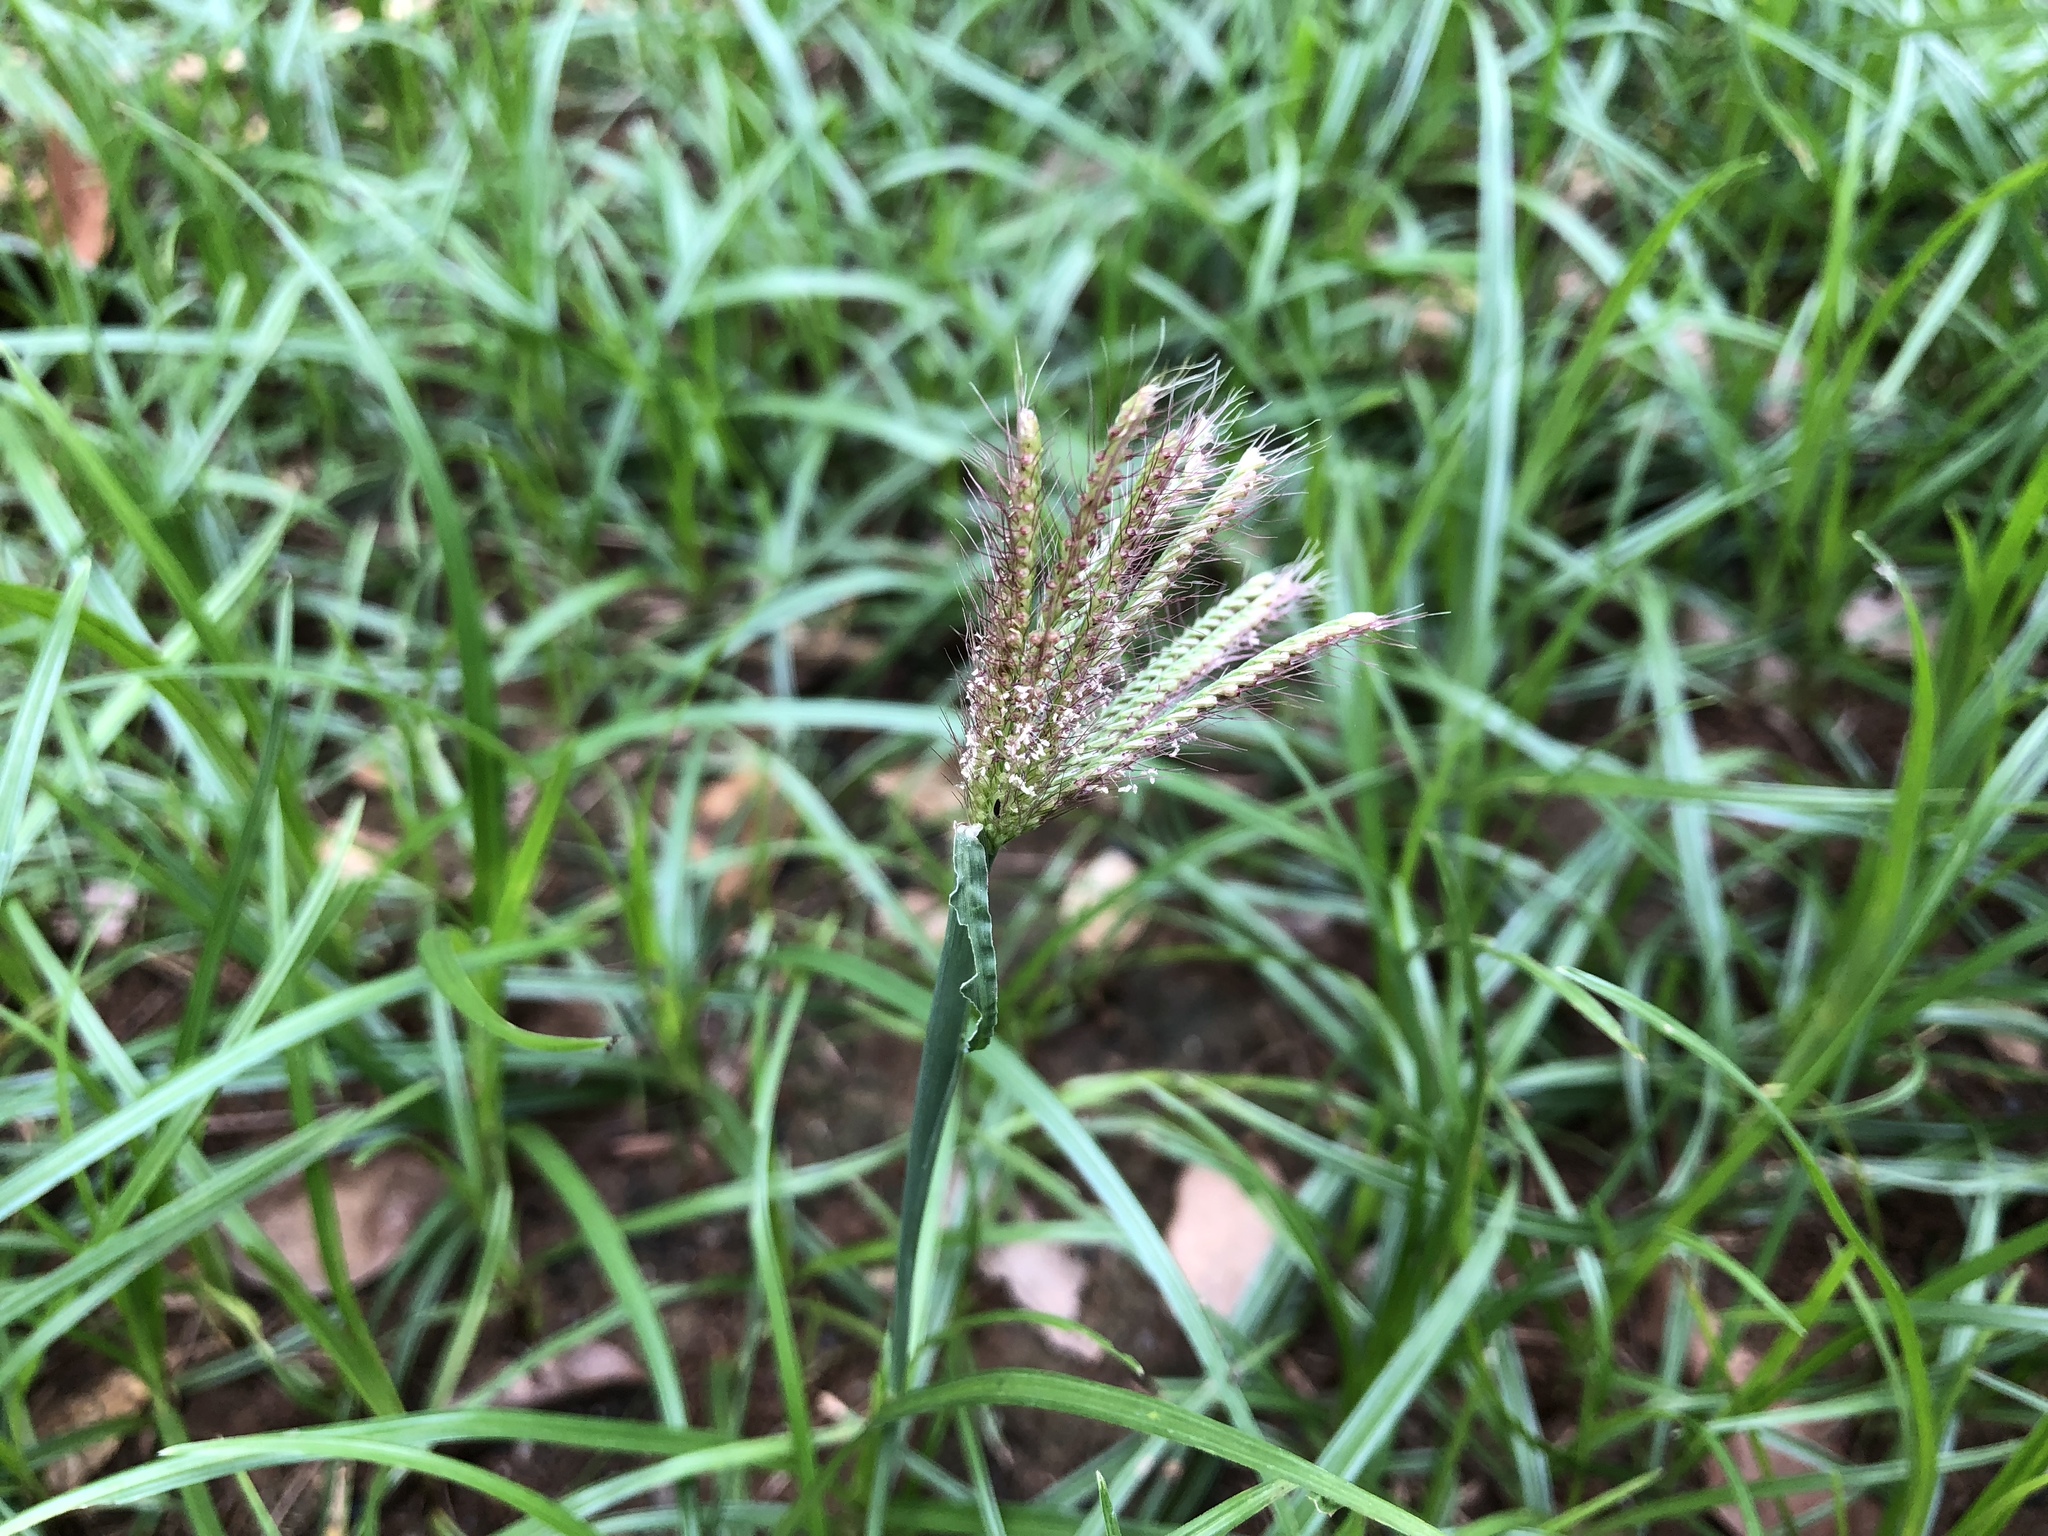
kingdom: Plantae
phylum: Tracheophyta
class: Liliopsida
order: Poales
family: Poaceae
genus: Chloris
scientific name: Chloris barbata
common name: Swollen fingergrass
